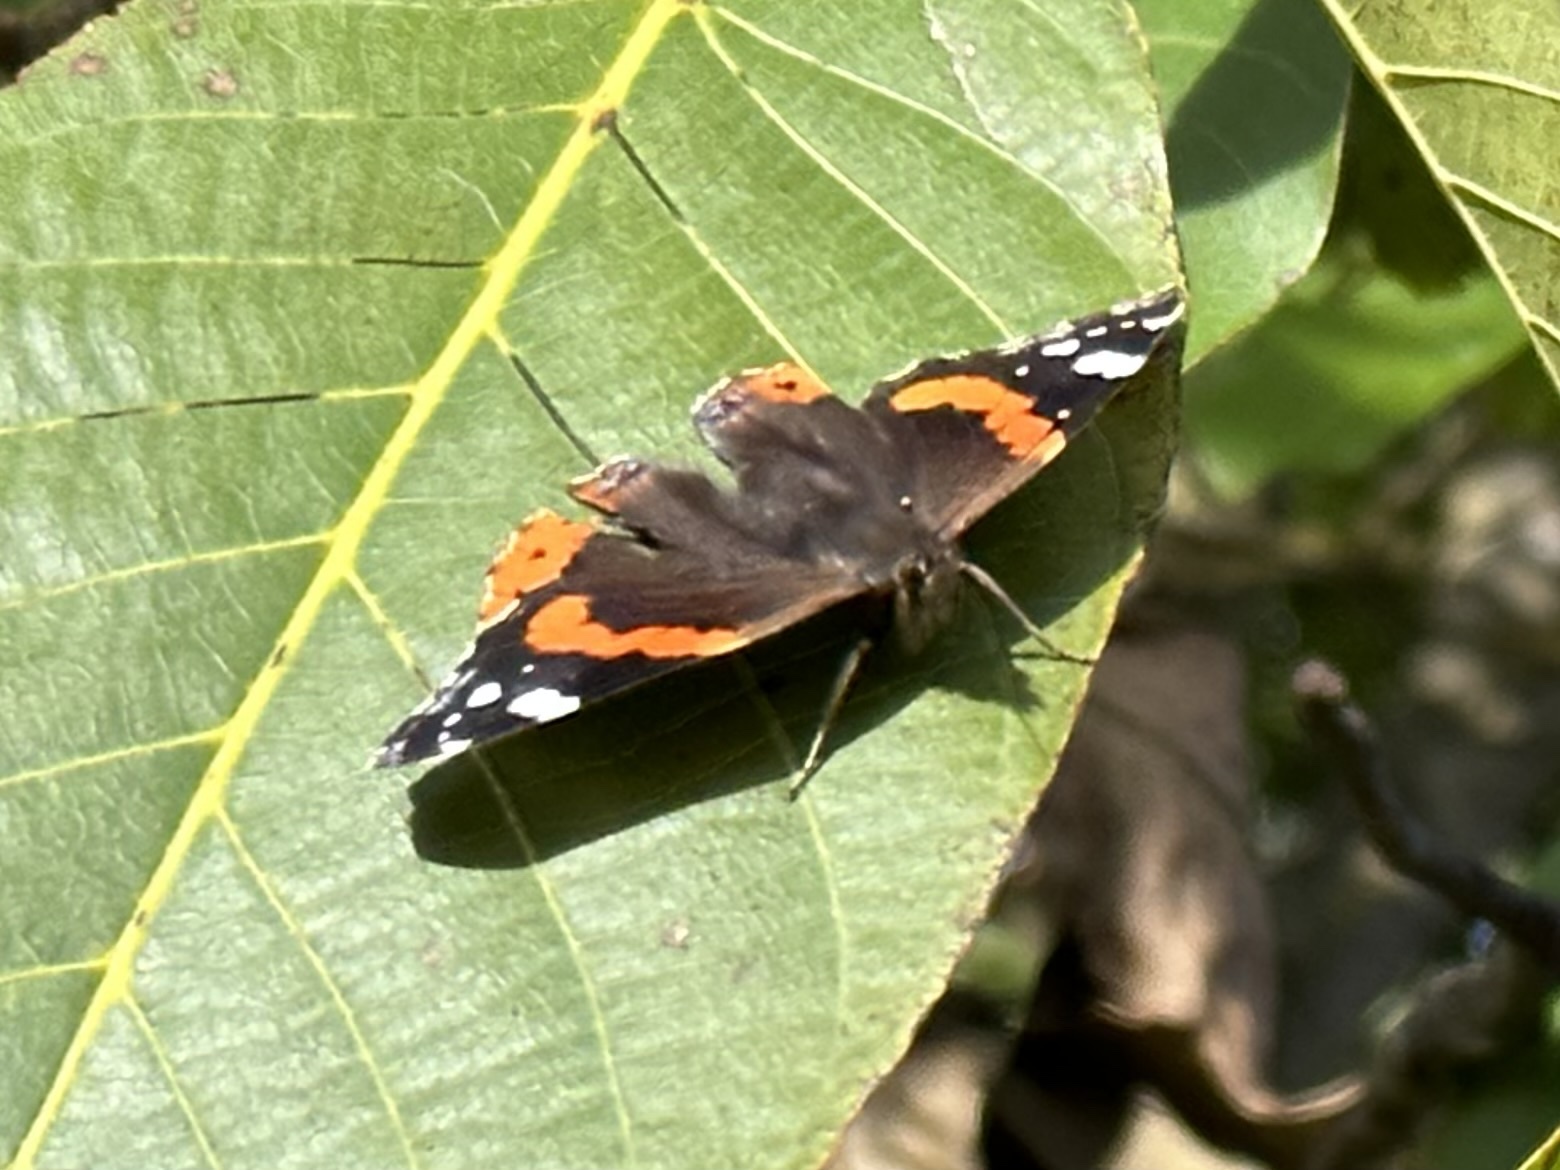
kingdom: Animalia
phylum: Arthropoda
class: Insecta
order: Lepidoptera
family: Nymphalidae
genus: Vanessa
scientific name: Vanessa atalanta
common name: Red admiral
